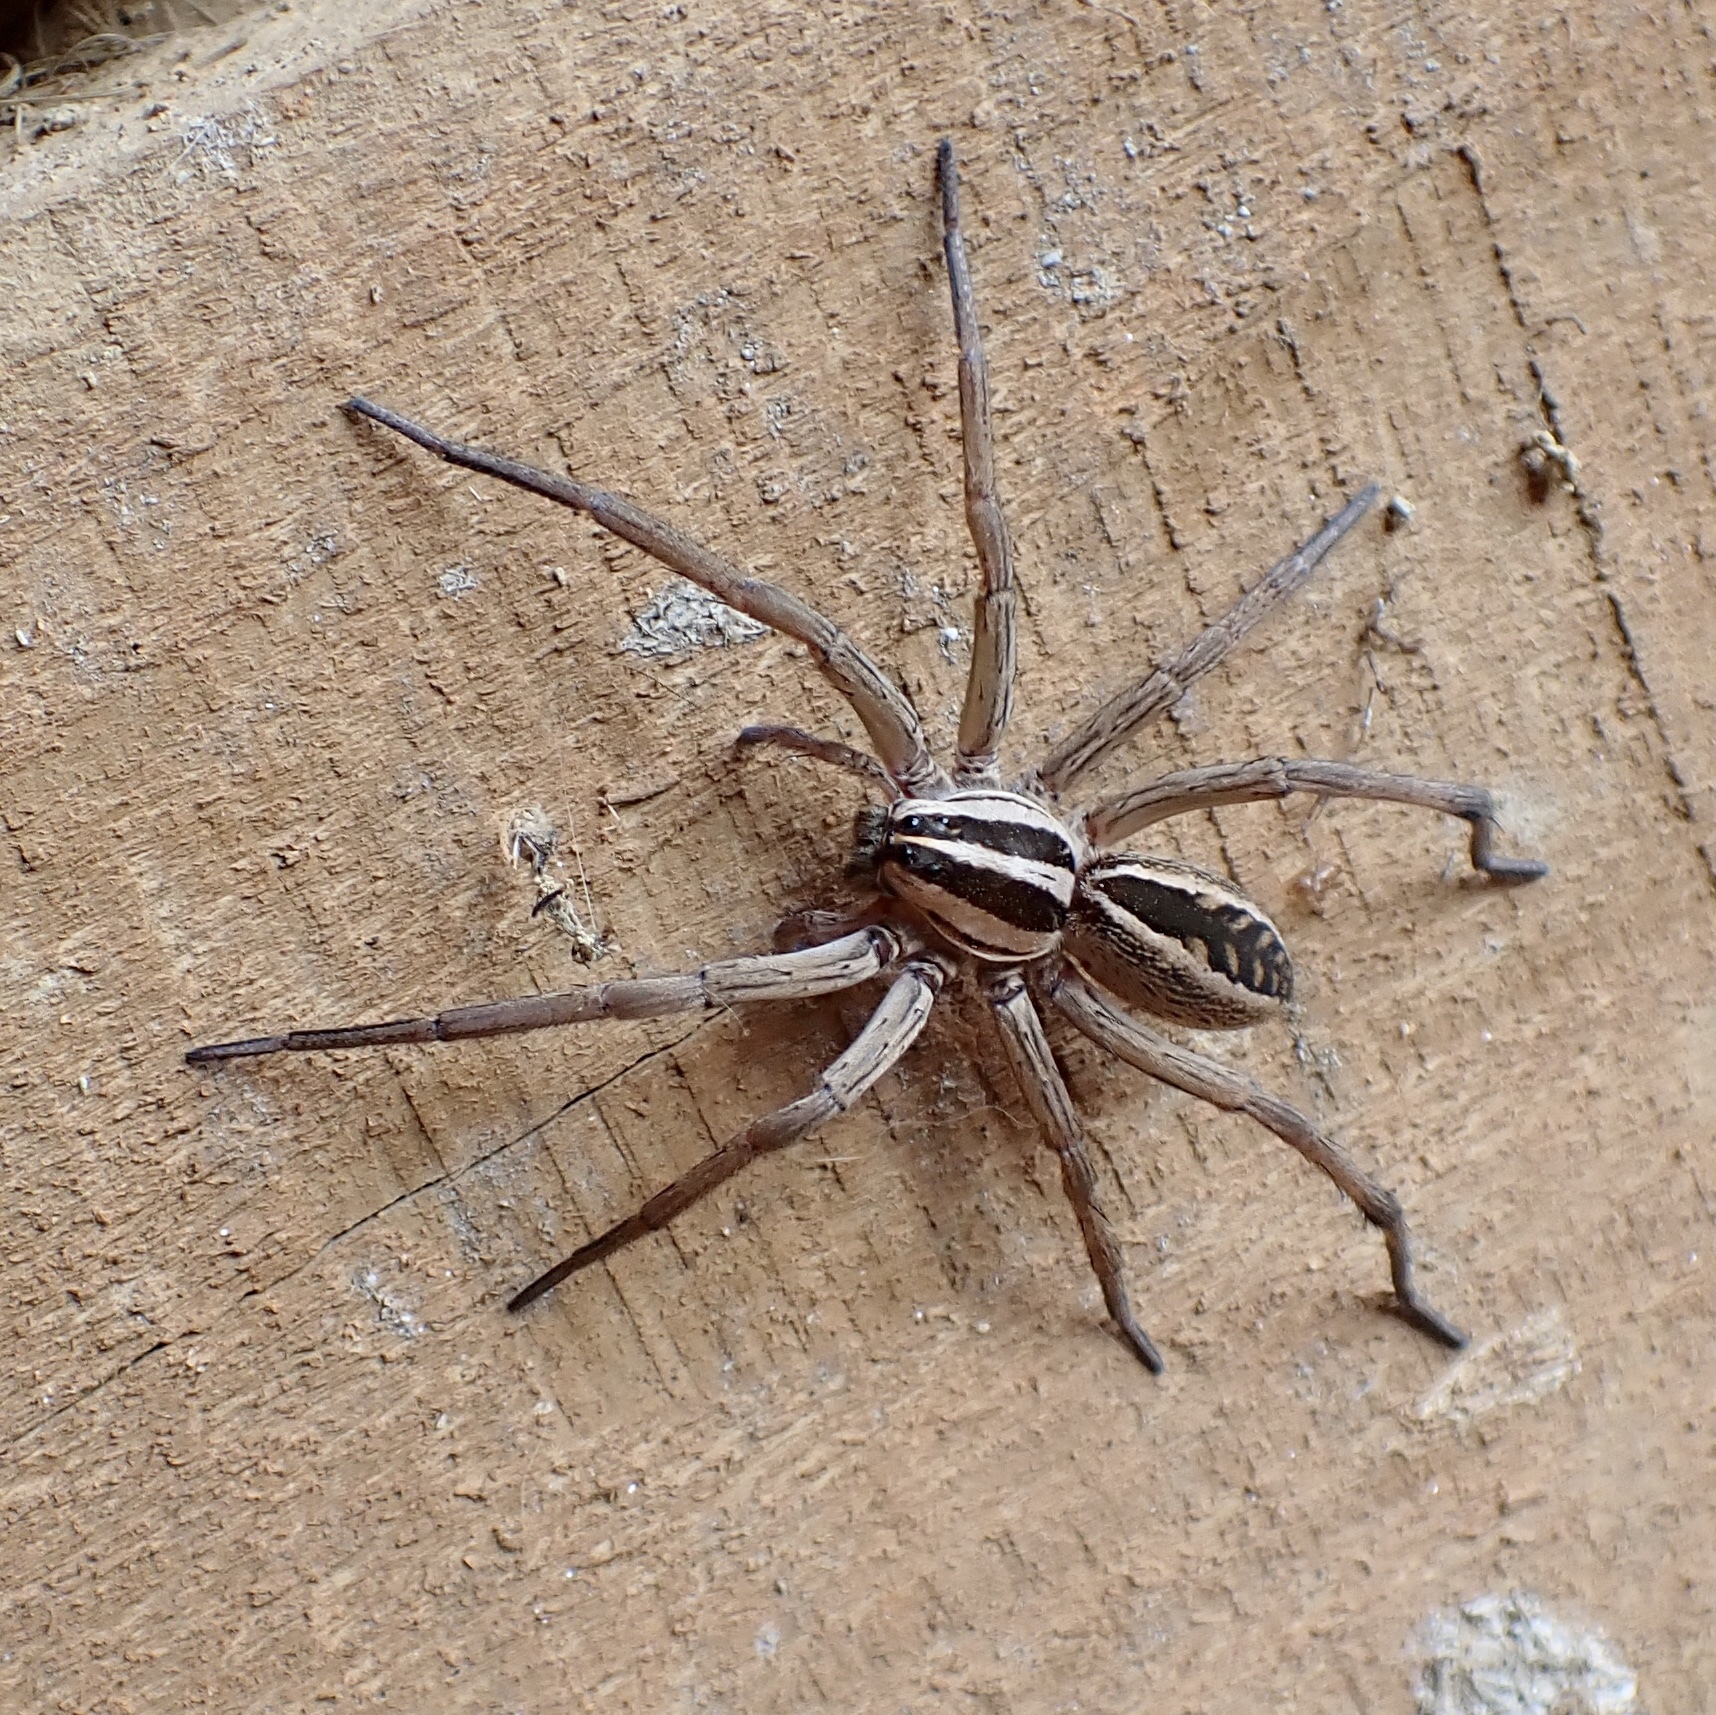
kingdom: Animalia
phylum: Arthropoda
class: Arachnida
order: Araneae
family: Lycosidae
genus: Rabidosa
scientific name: Rabidosa rabida
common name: Rabid wolf spider
